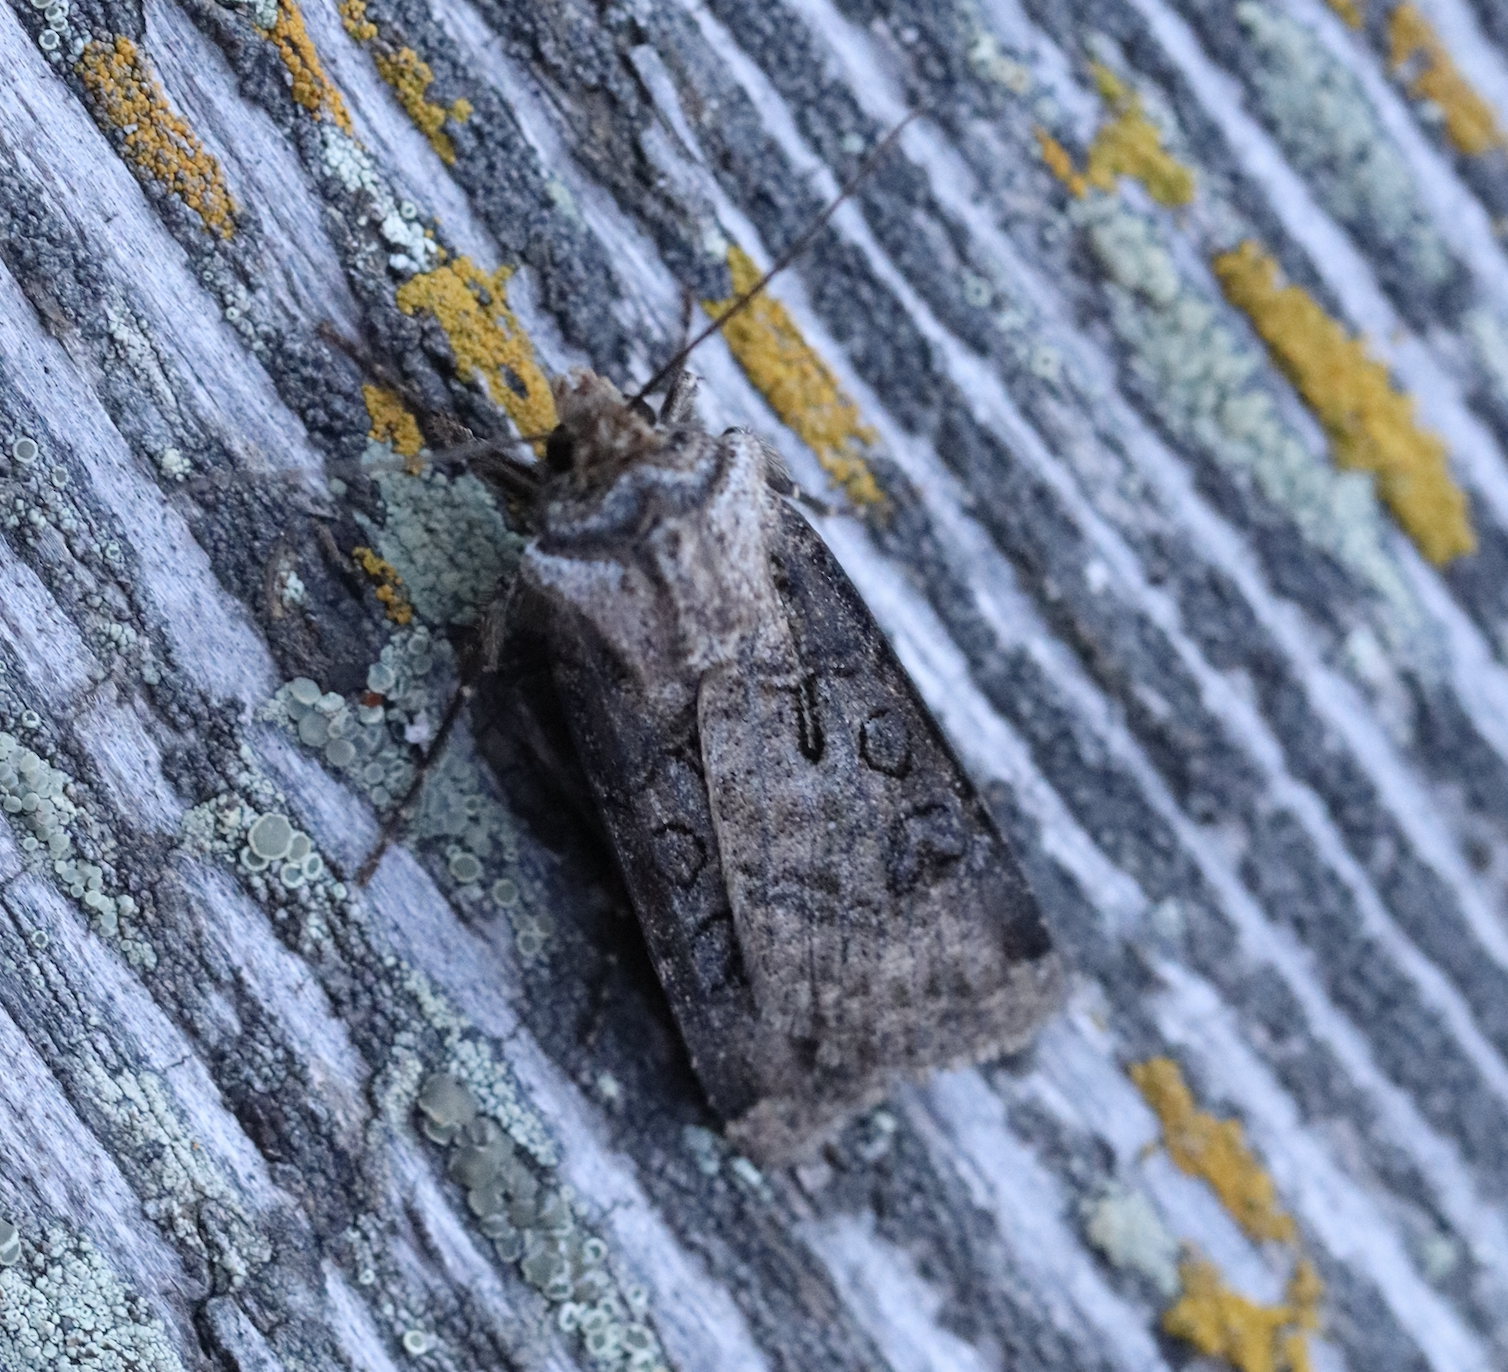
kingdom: Animalia
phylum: Arthropoda
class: Insecta
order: Lepidoptera
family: Noctuidae
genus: Agrotis
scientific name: Agrotis clavis
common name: Heart and club
